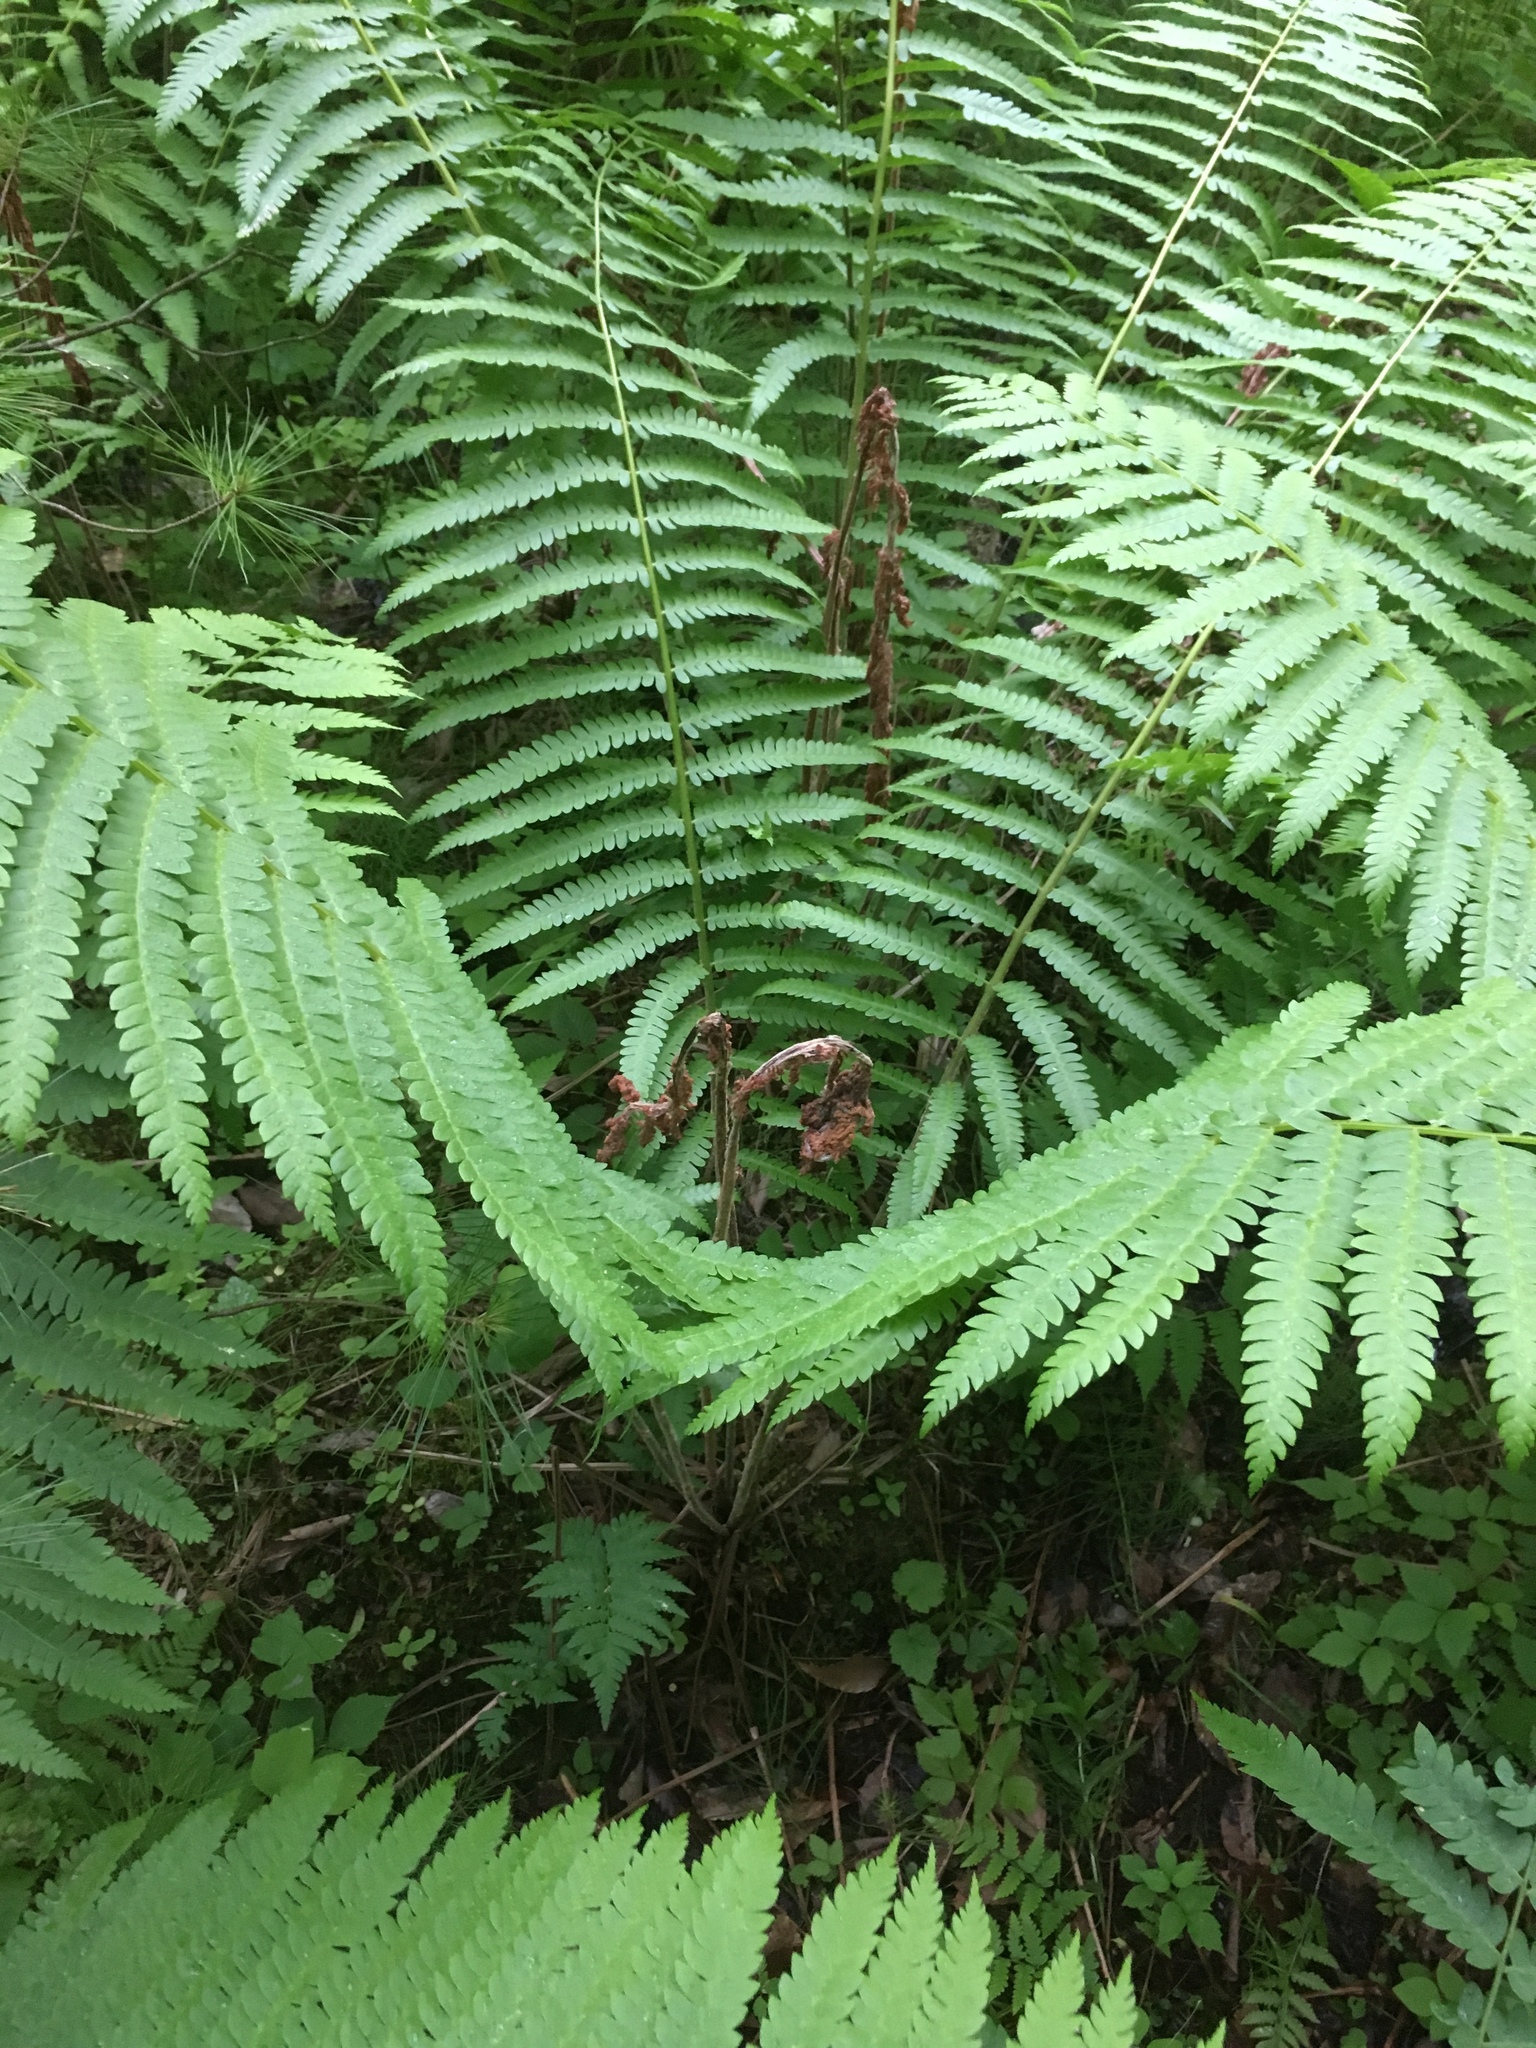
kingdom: Plantae
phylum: Tracheophyta
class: Polypodiopsida
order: Osmundales
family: Osmundaceae
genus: Osmundastrum
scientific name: Osmundastrum cinnamomeum
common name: Cinnamon fern
